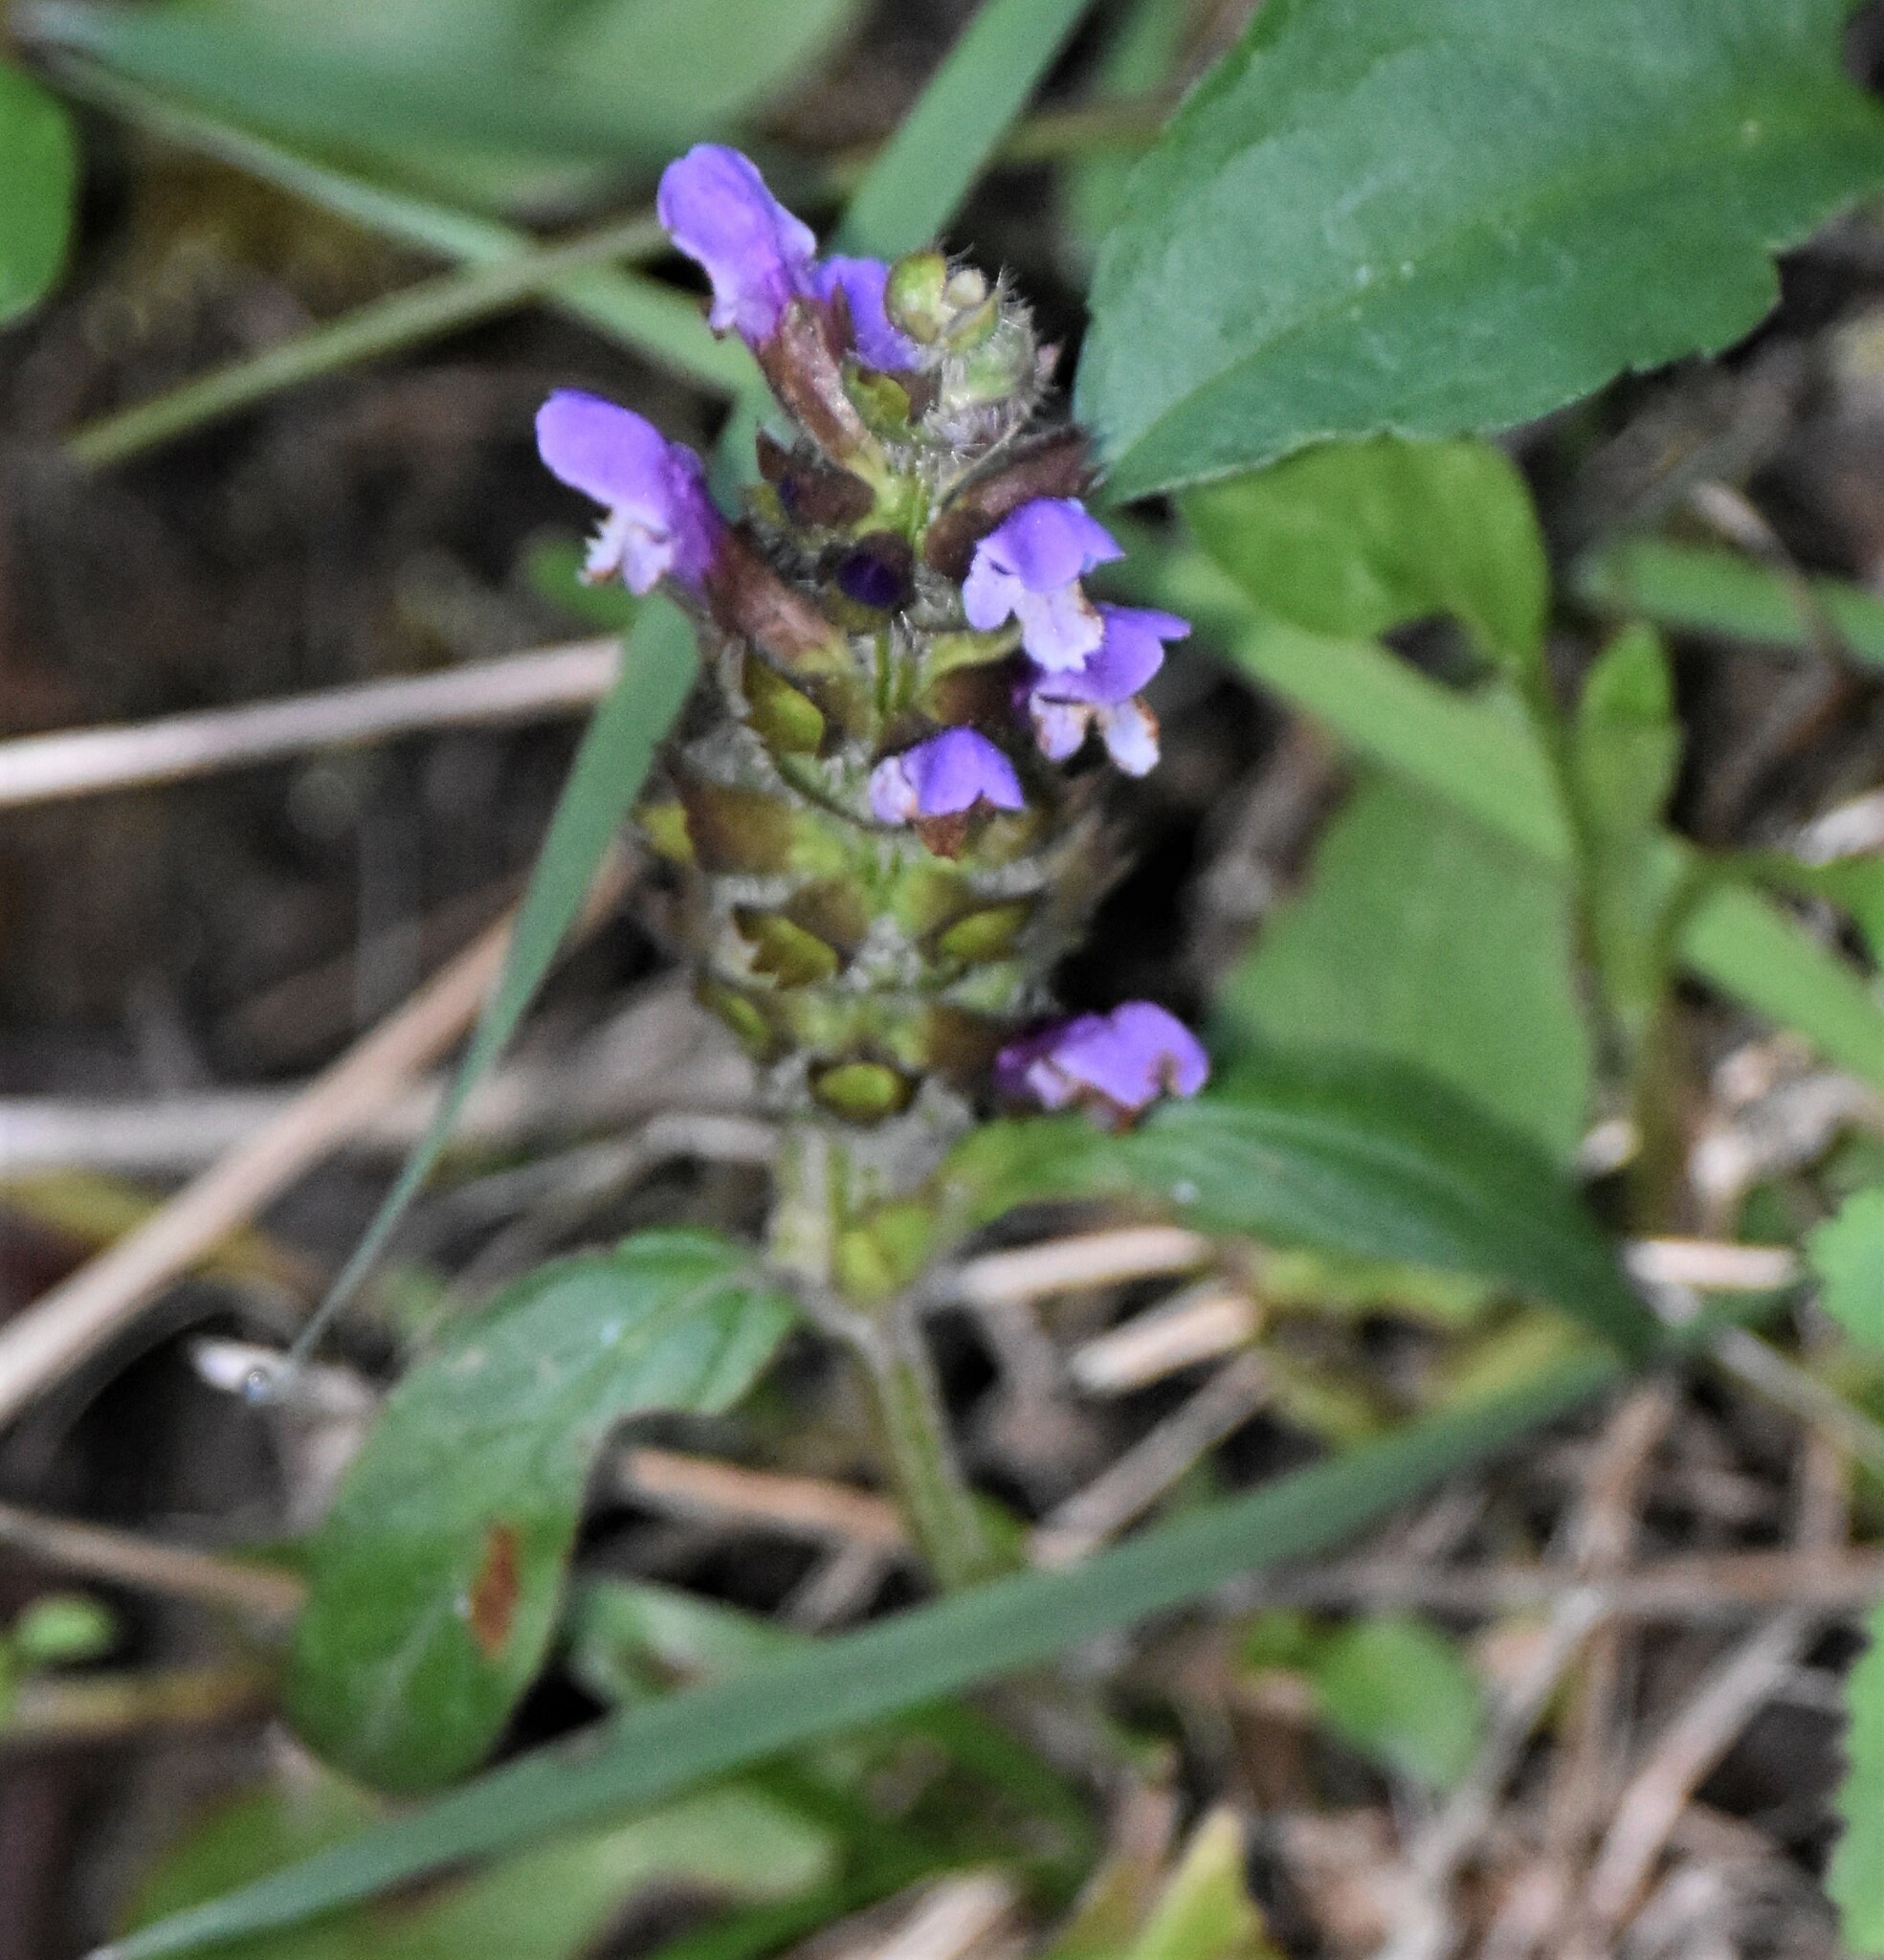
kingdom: Plantae
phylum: Tracheophyta
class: Magnoliopsida
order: Lamiales
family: Lamiaceae
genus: Prunella
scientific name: Prunella vulgaris
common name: Heal-all
